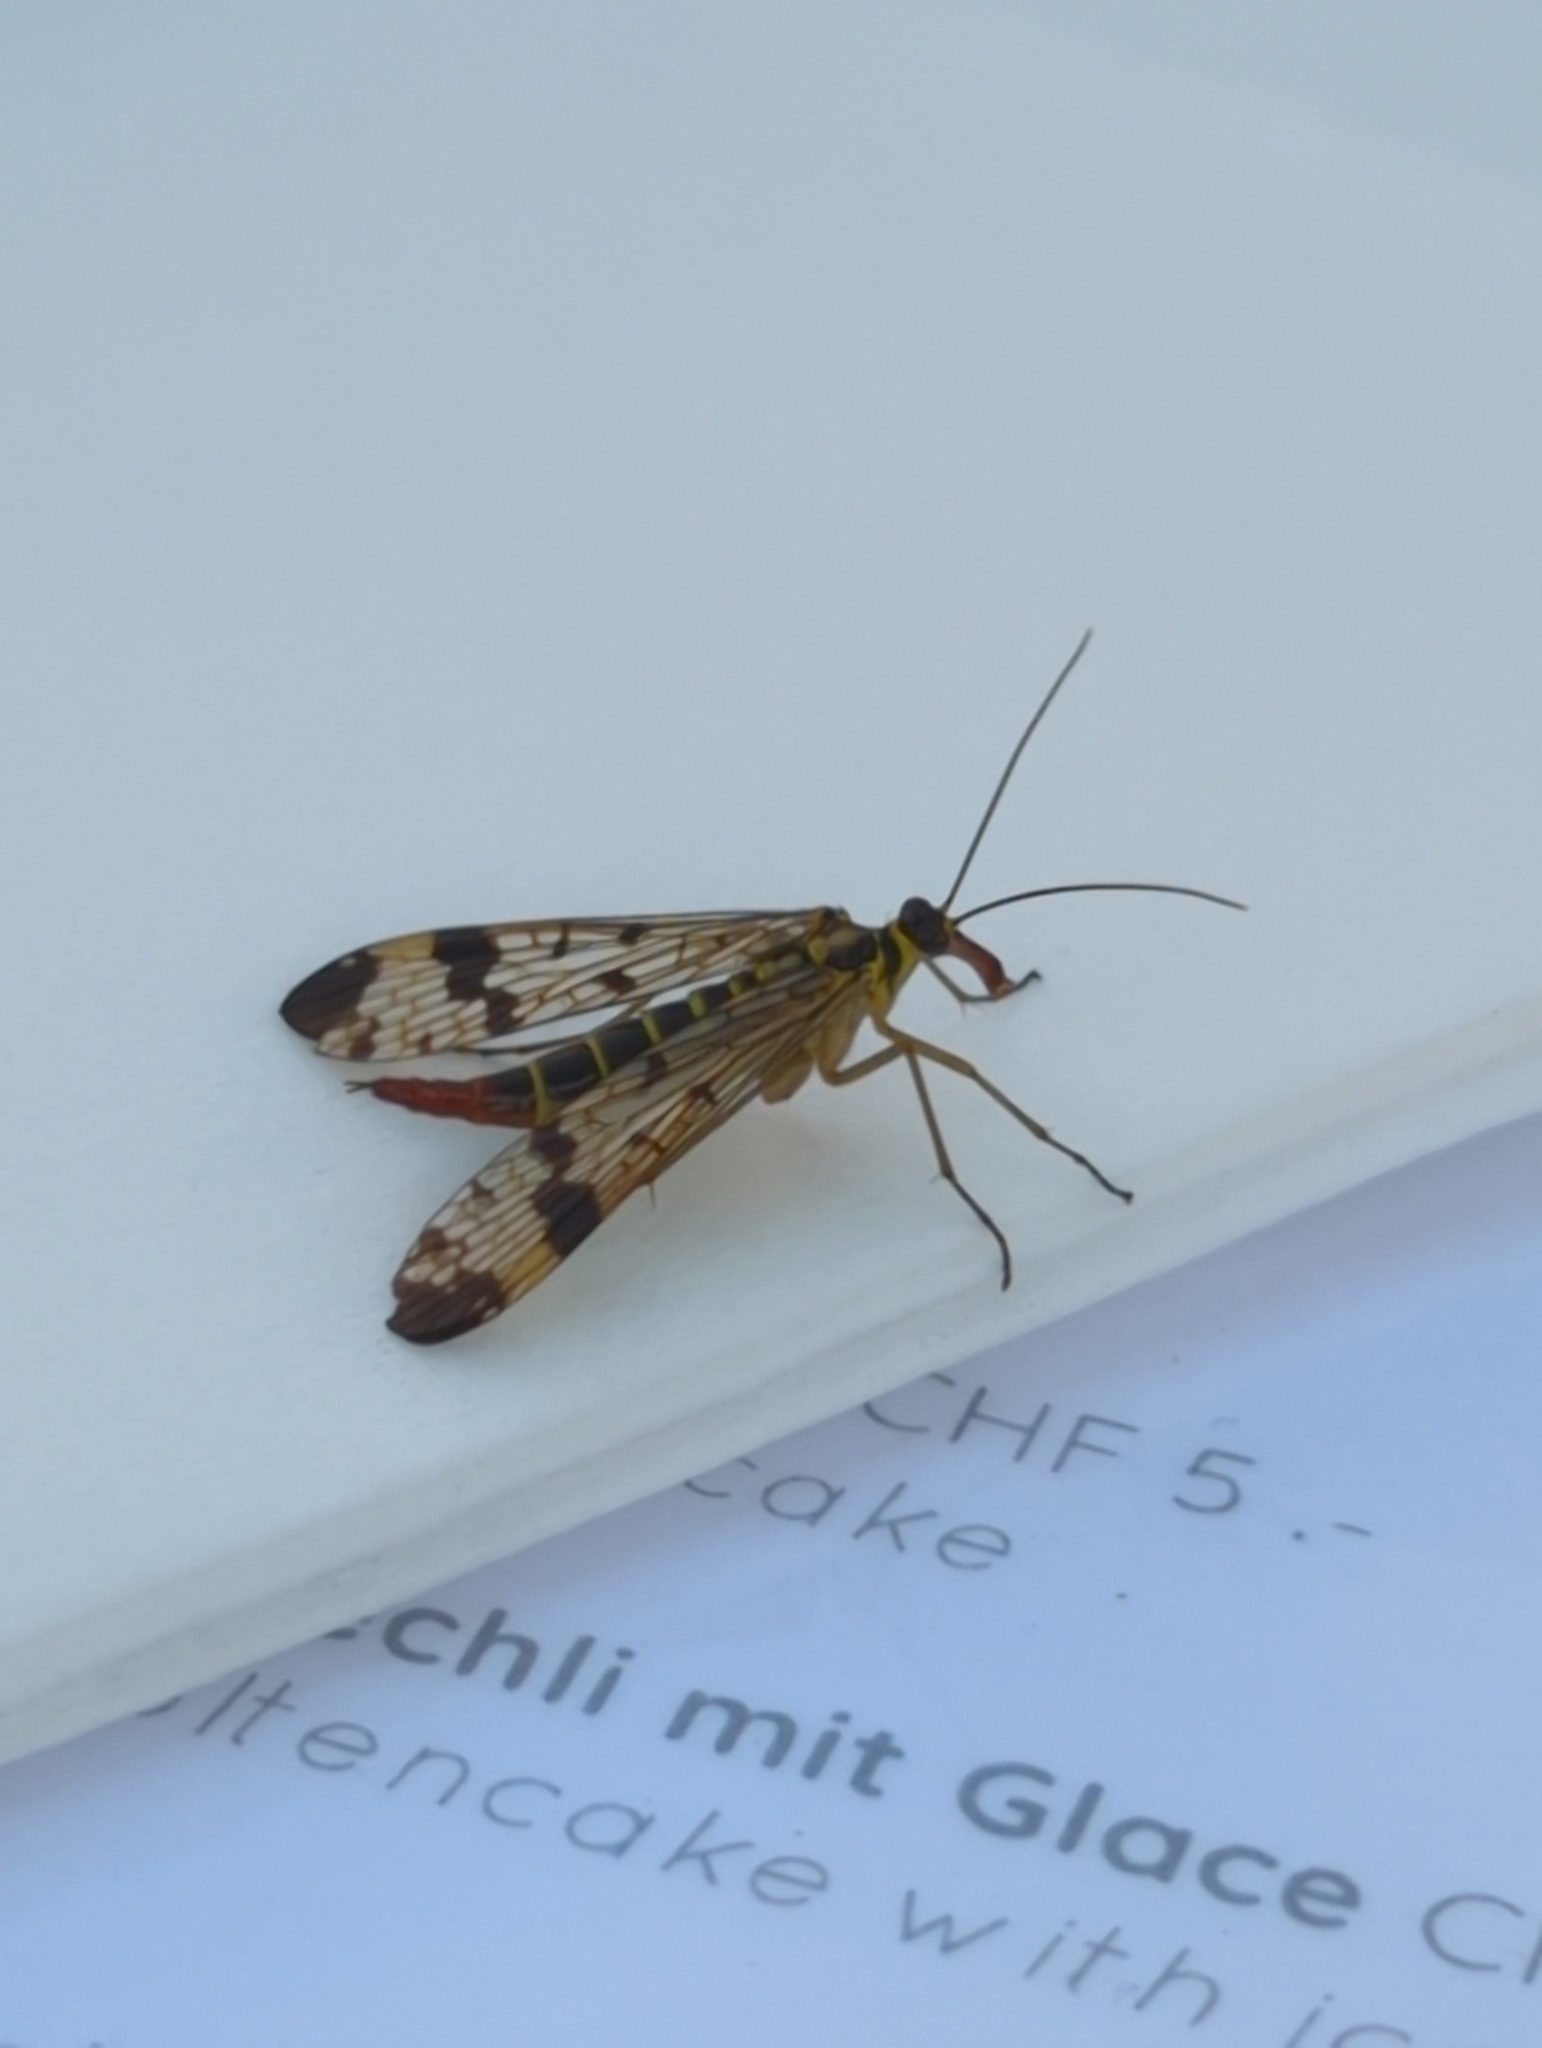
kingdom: Animalia
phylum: Arthropoda
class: Insecta
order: Mecoptera
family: Panorpidae
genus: Panorpa
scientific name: Panorpa communis
